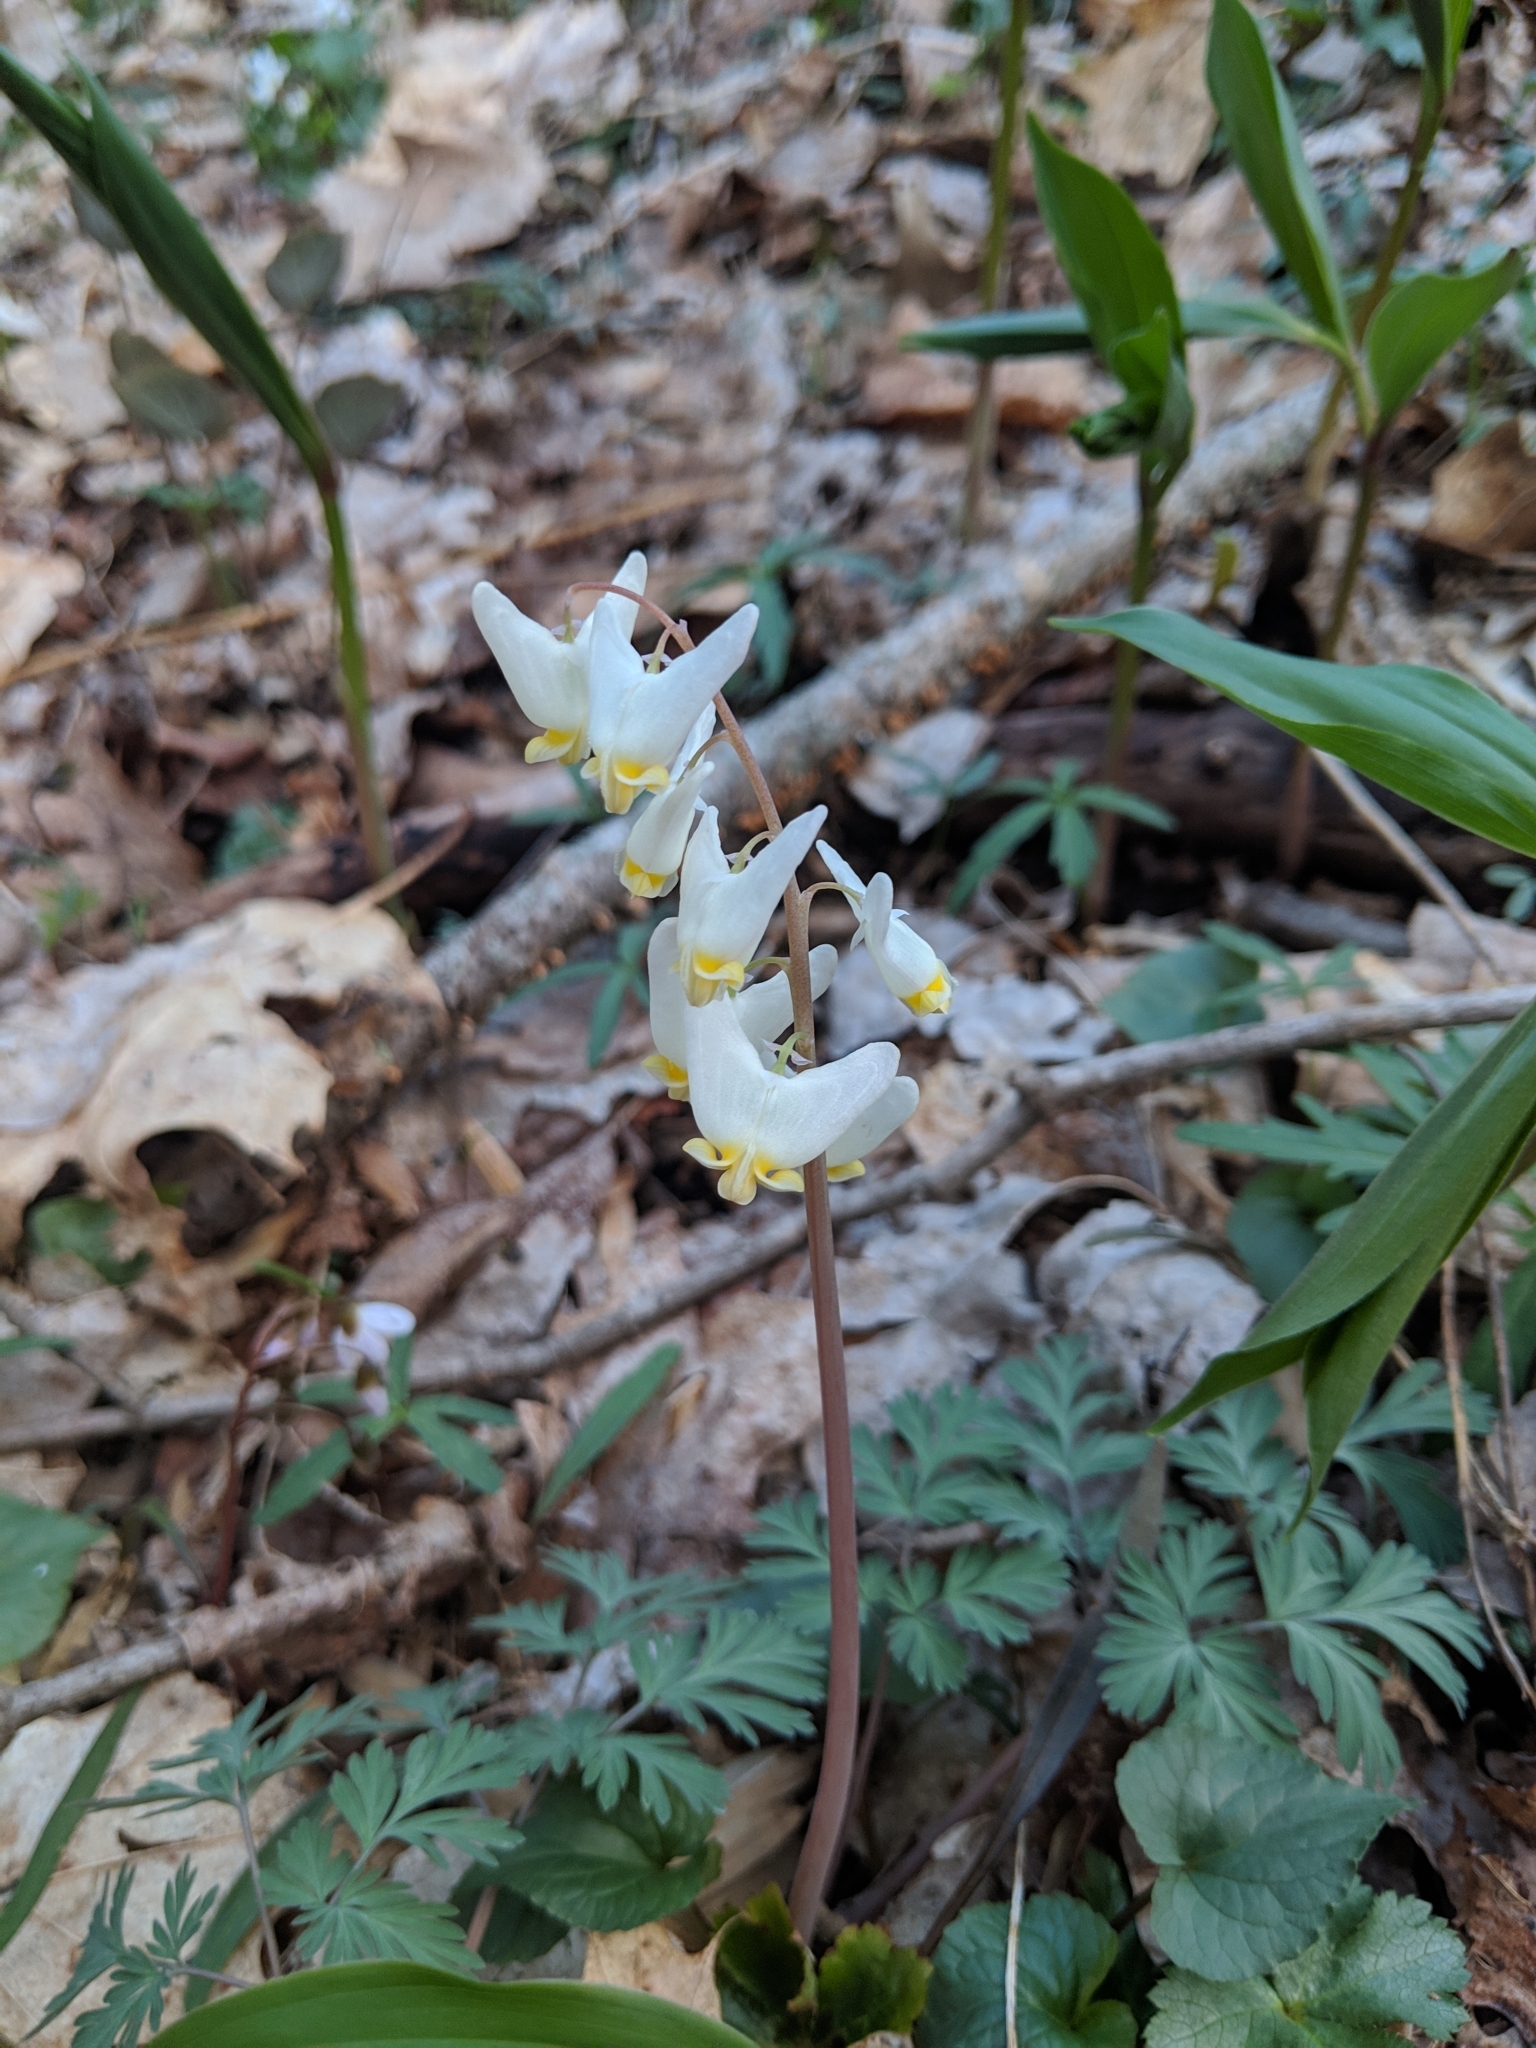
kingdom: Plantae
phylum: Tracheophyta
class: Magnoliopsida
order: Ranunculales
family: Papaveraceae
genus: Dicentra
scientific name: Dicentra cucullaria
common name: Dutchman's breeches
